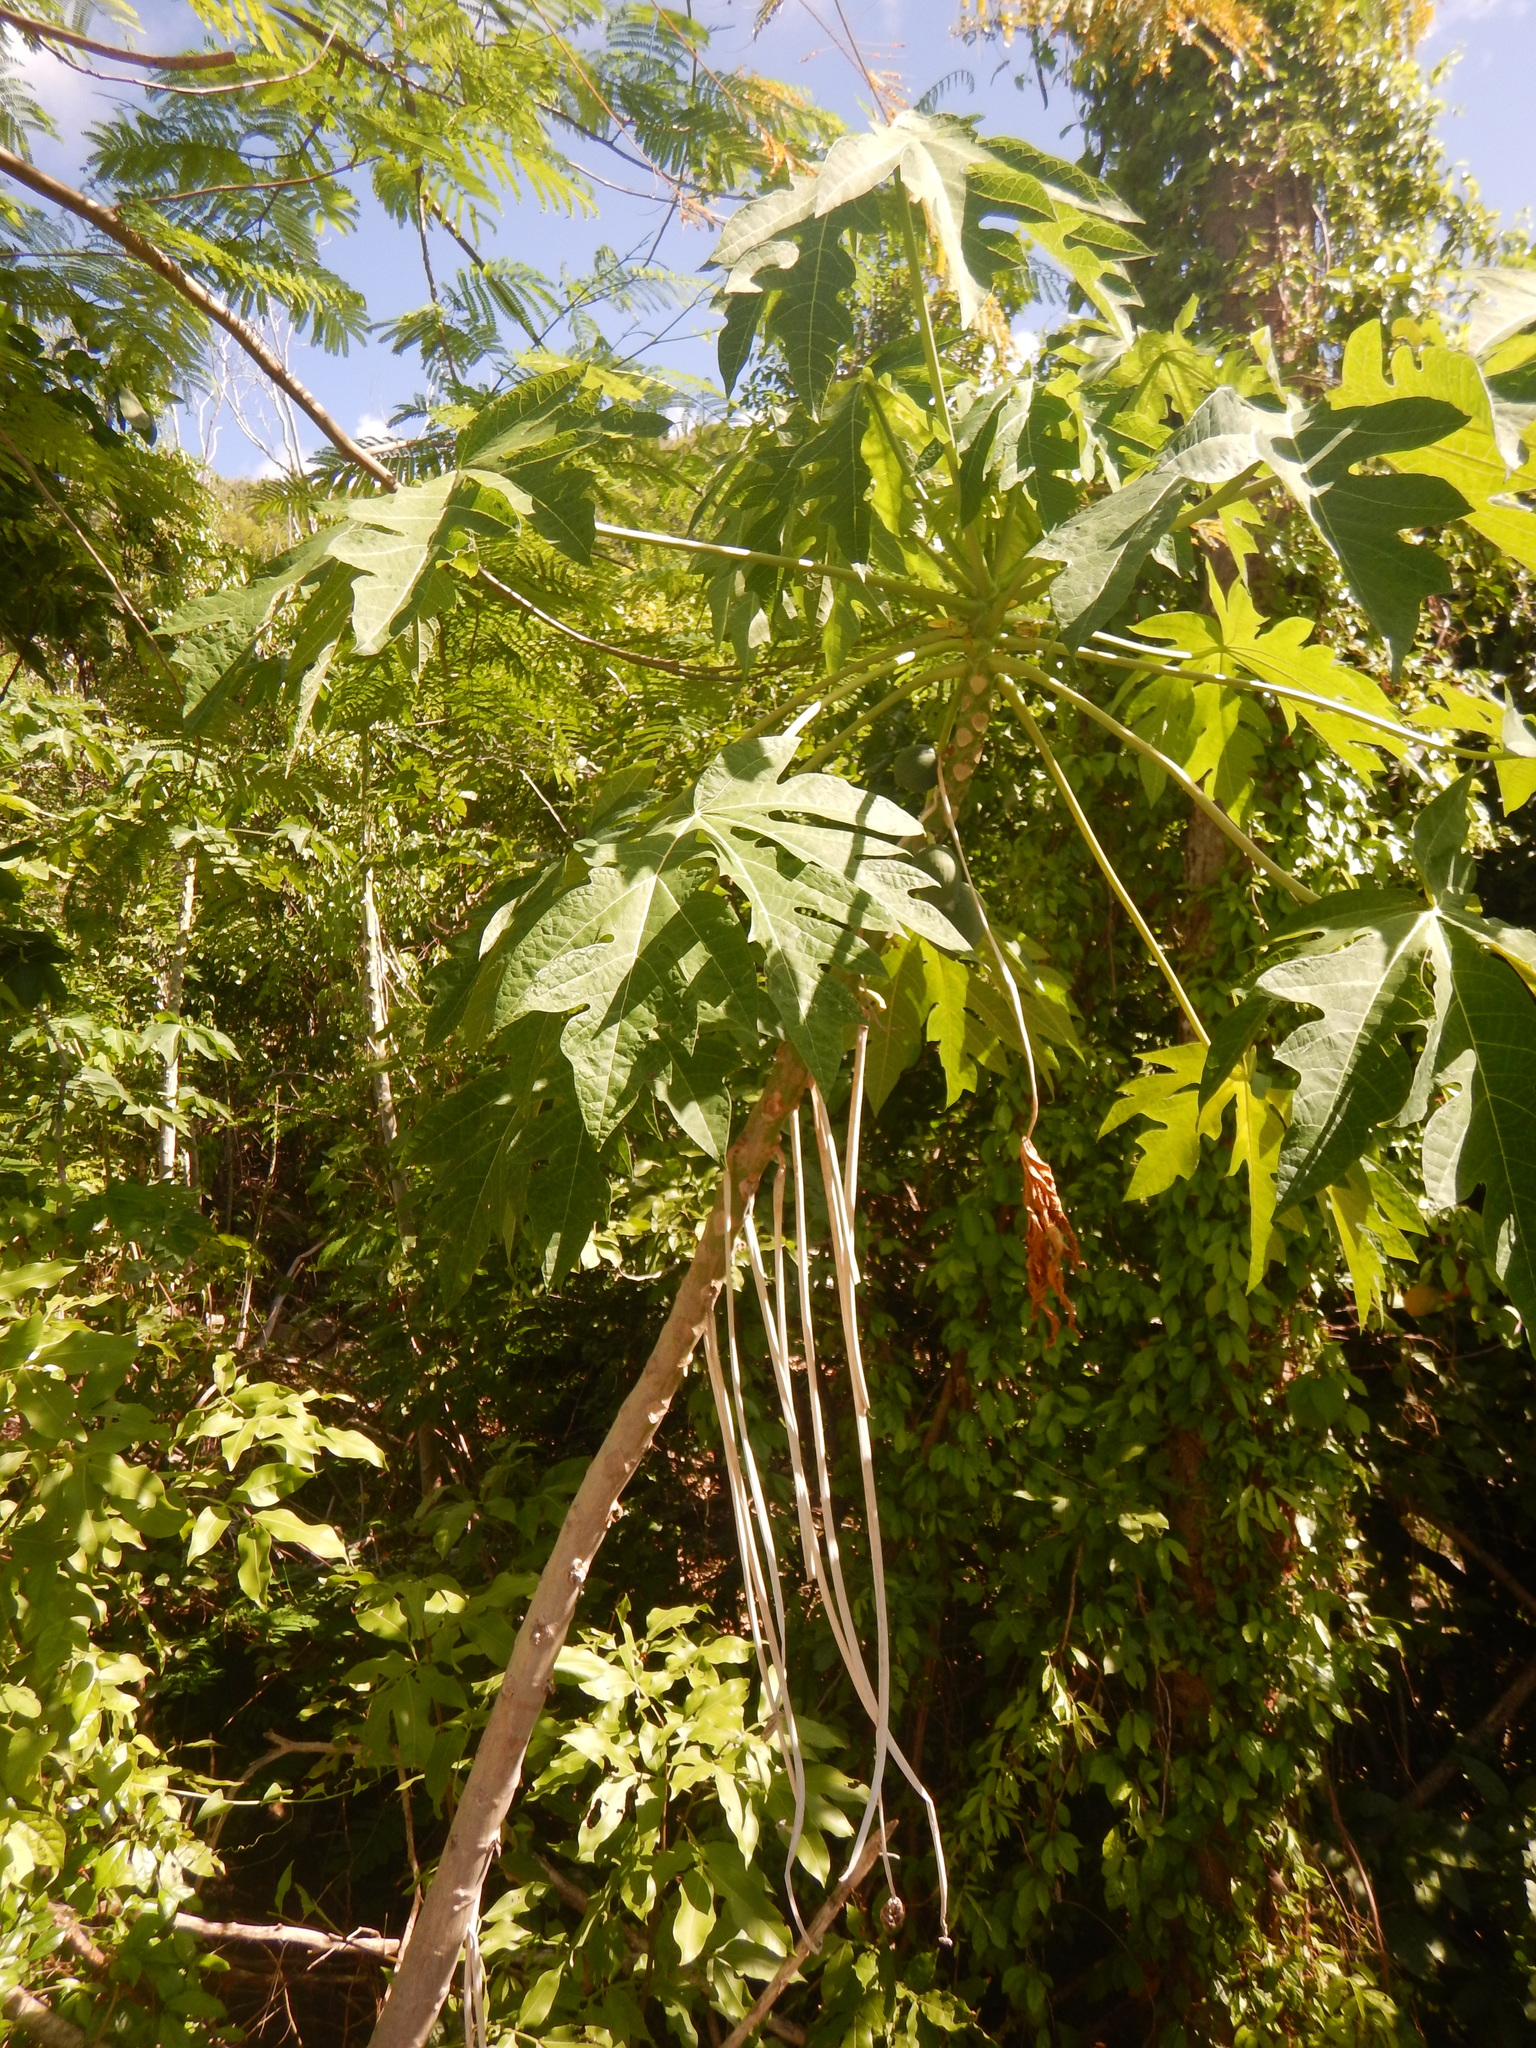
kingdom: Plantae
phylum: Tracheophyta
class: Magnoliopsida
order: Brassicales
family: Caricaceae
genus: Carica
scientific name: Carica papaya
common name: Papaya
